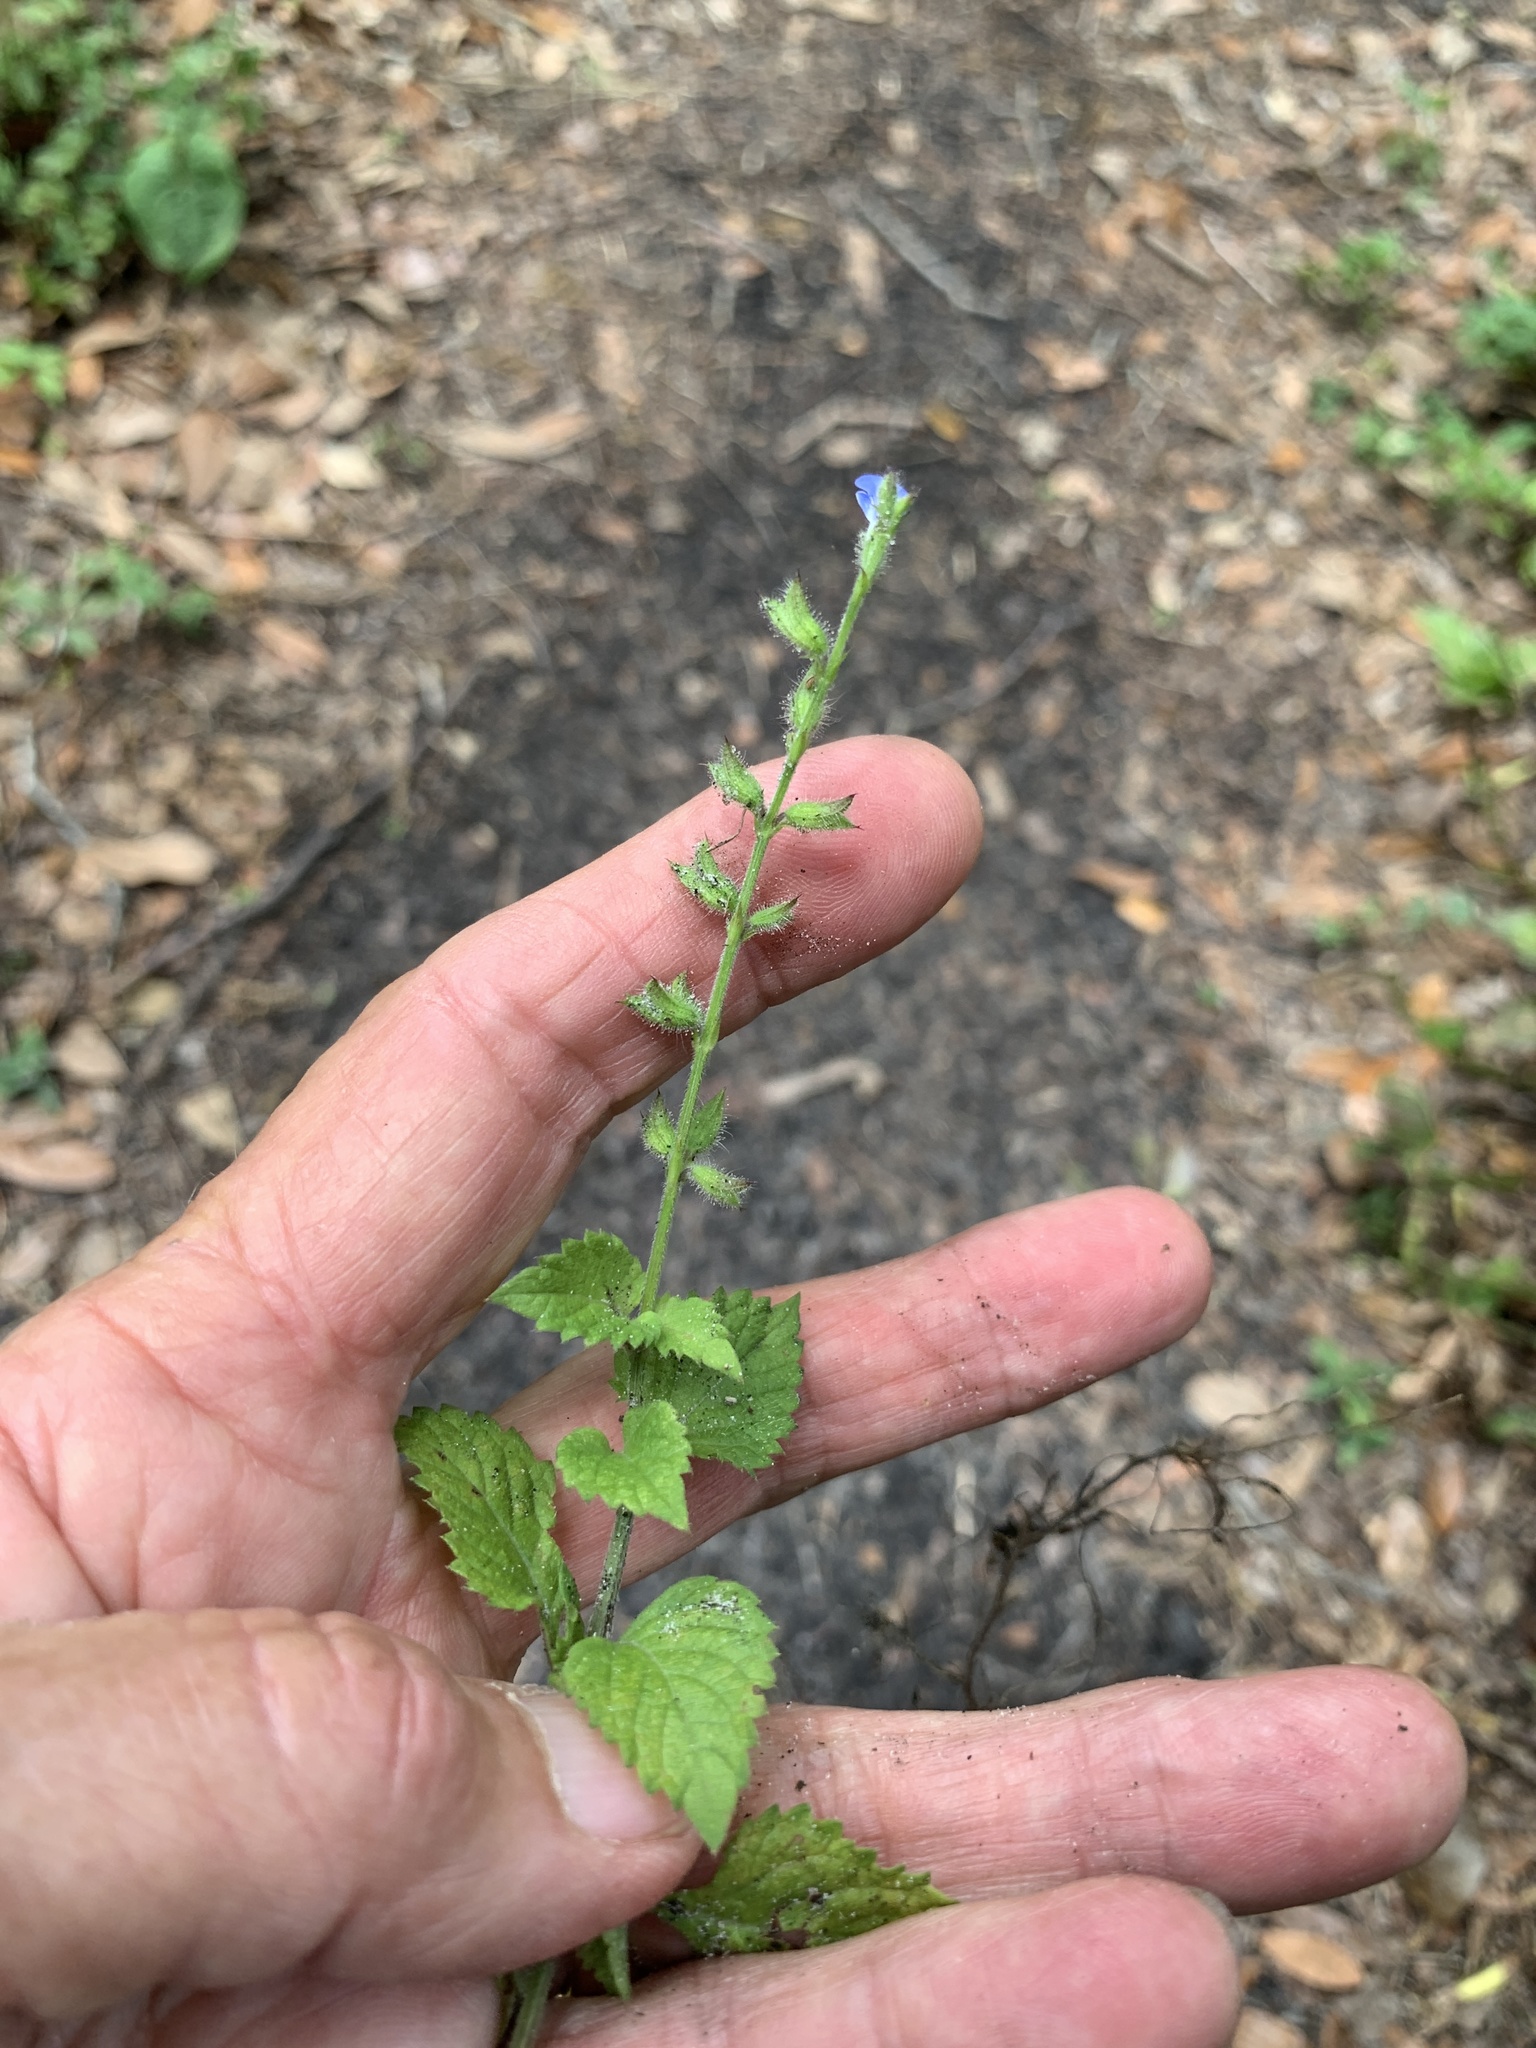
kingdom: Plantae
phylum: Tracheophyta
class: Magnoliopsida
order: Lamiales
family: Lamiaceae
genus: Salvia
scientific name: Salvia misella
